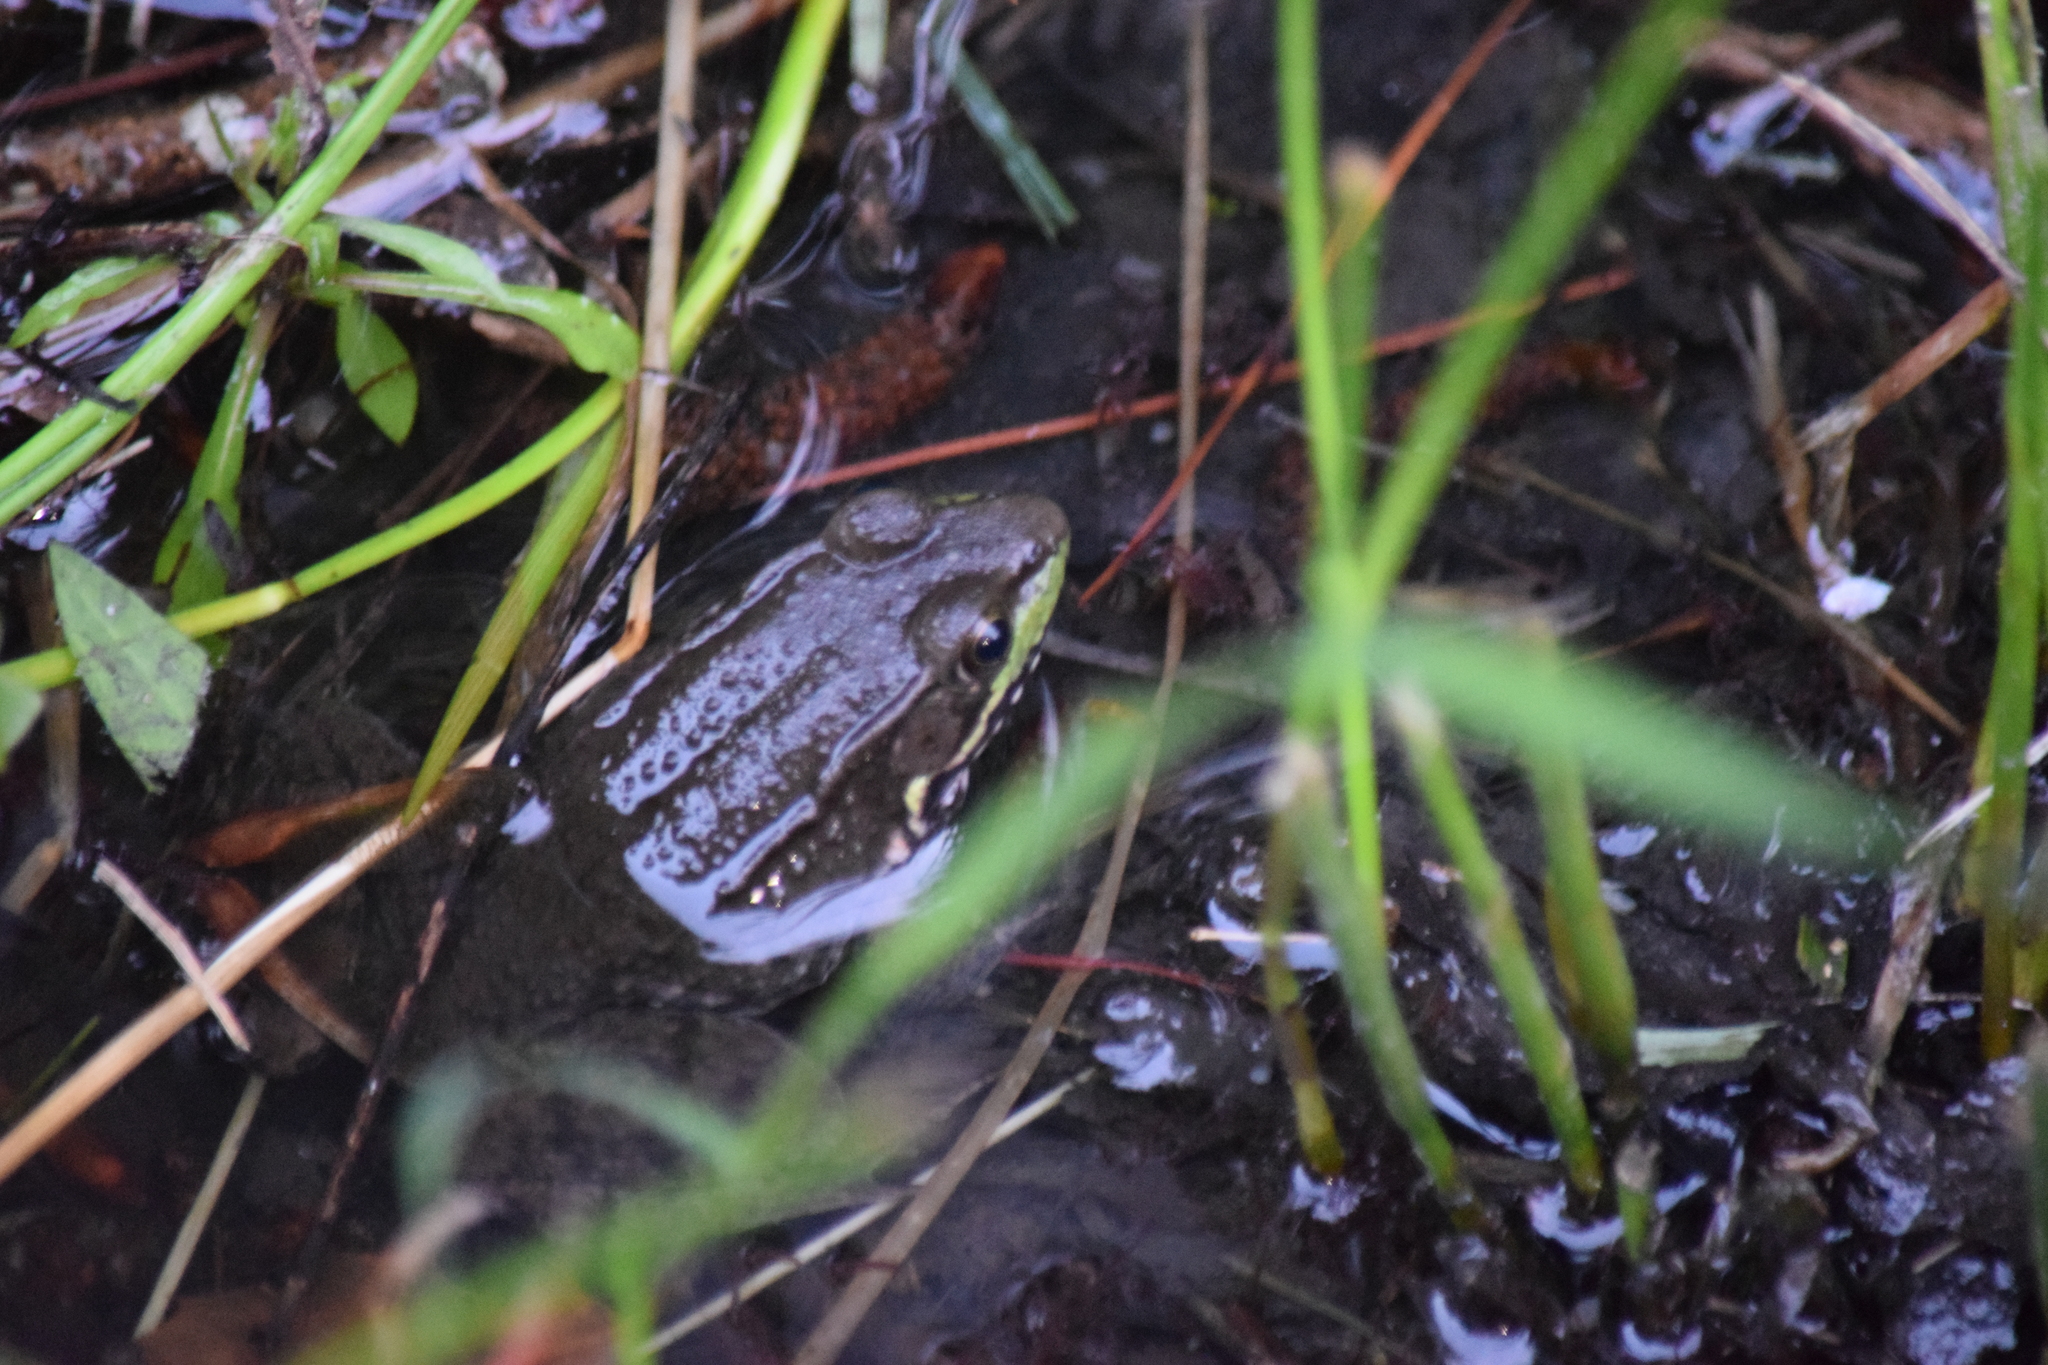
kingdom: Animalia
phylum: Chordata
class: Amphibia
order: Anura
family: Ranidae
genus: Lithobates
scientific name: Lithobates clamitans
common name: Green frog
